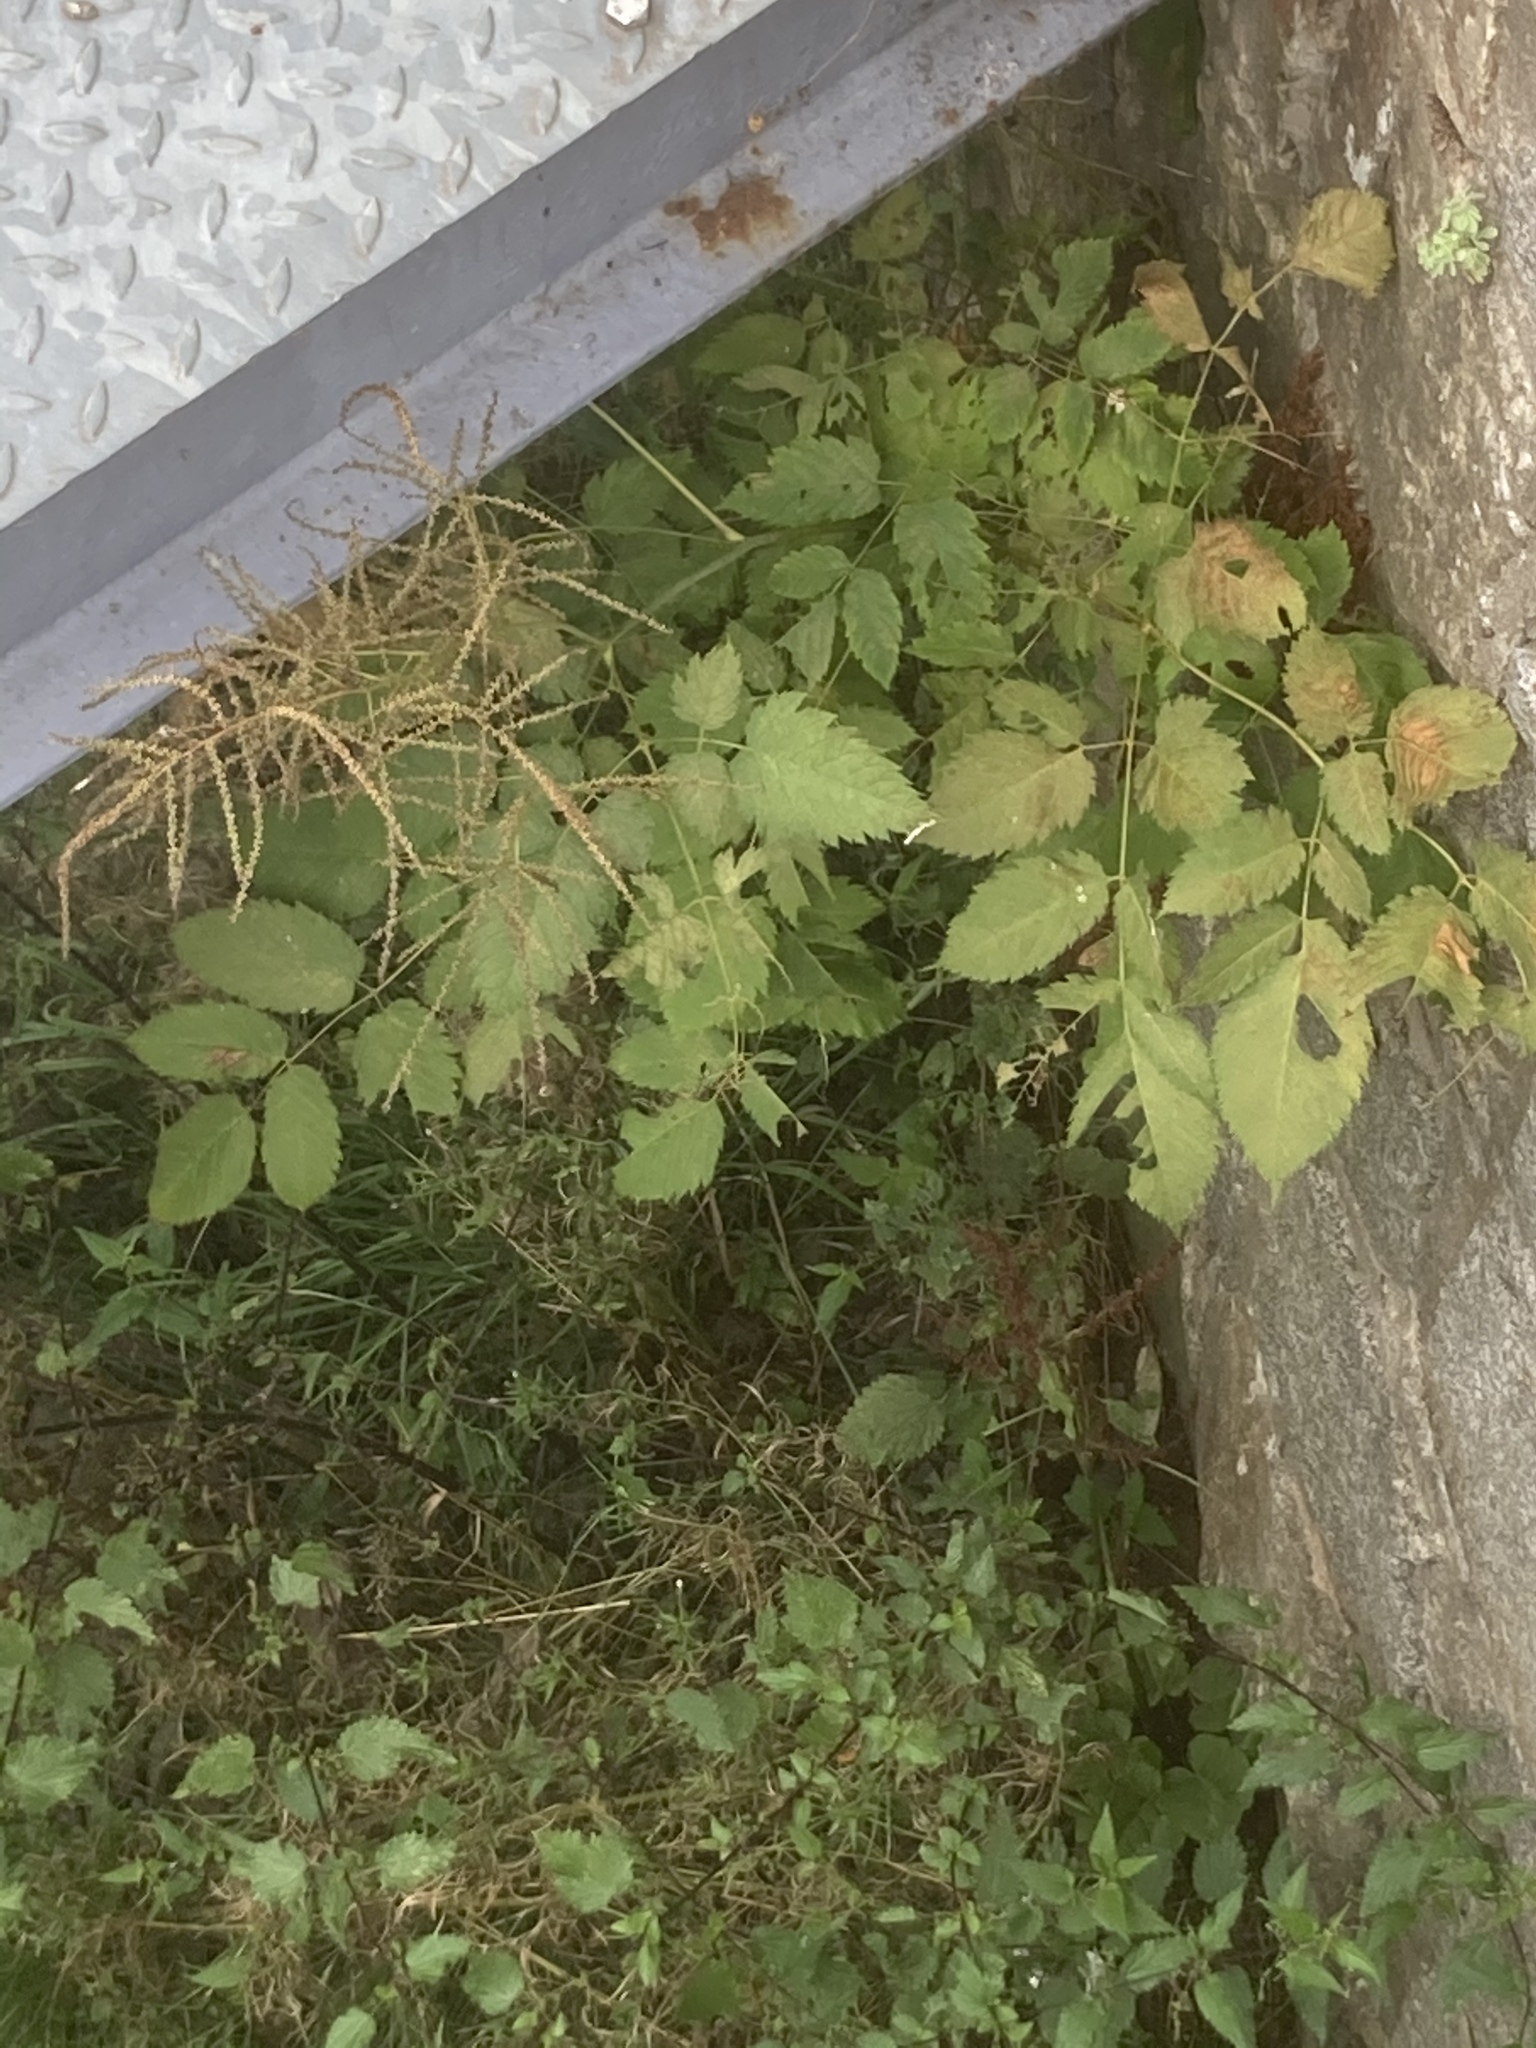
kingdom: Plantae
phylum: Tracheophyta
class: Magnoliopsida
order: Rosales
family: Rosaceae
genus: Aruncus
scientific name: Aruncus dioicus
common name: Buck's-beard
